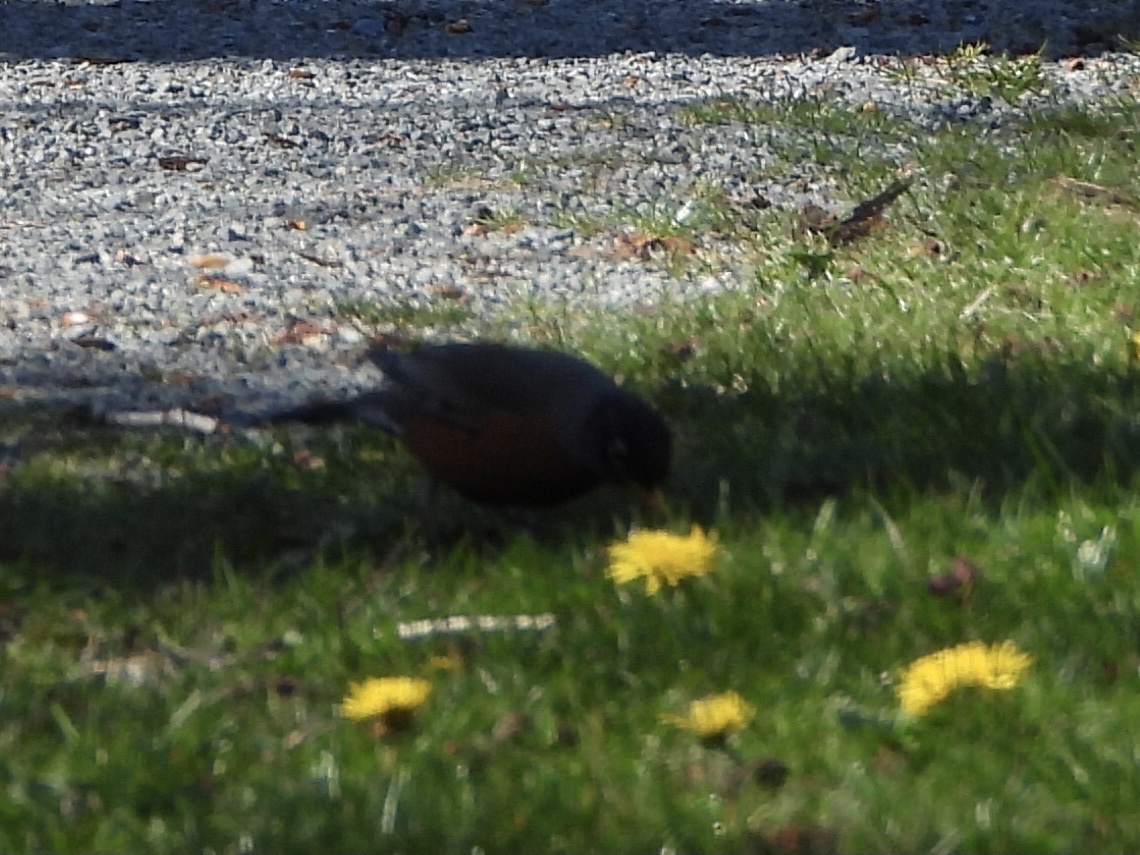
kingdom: Animalia
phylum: Chordata
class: Aves
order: Passeriformes
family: Turdidae
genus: Turdus
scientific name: Turdus migratorius
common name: American robin
